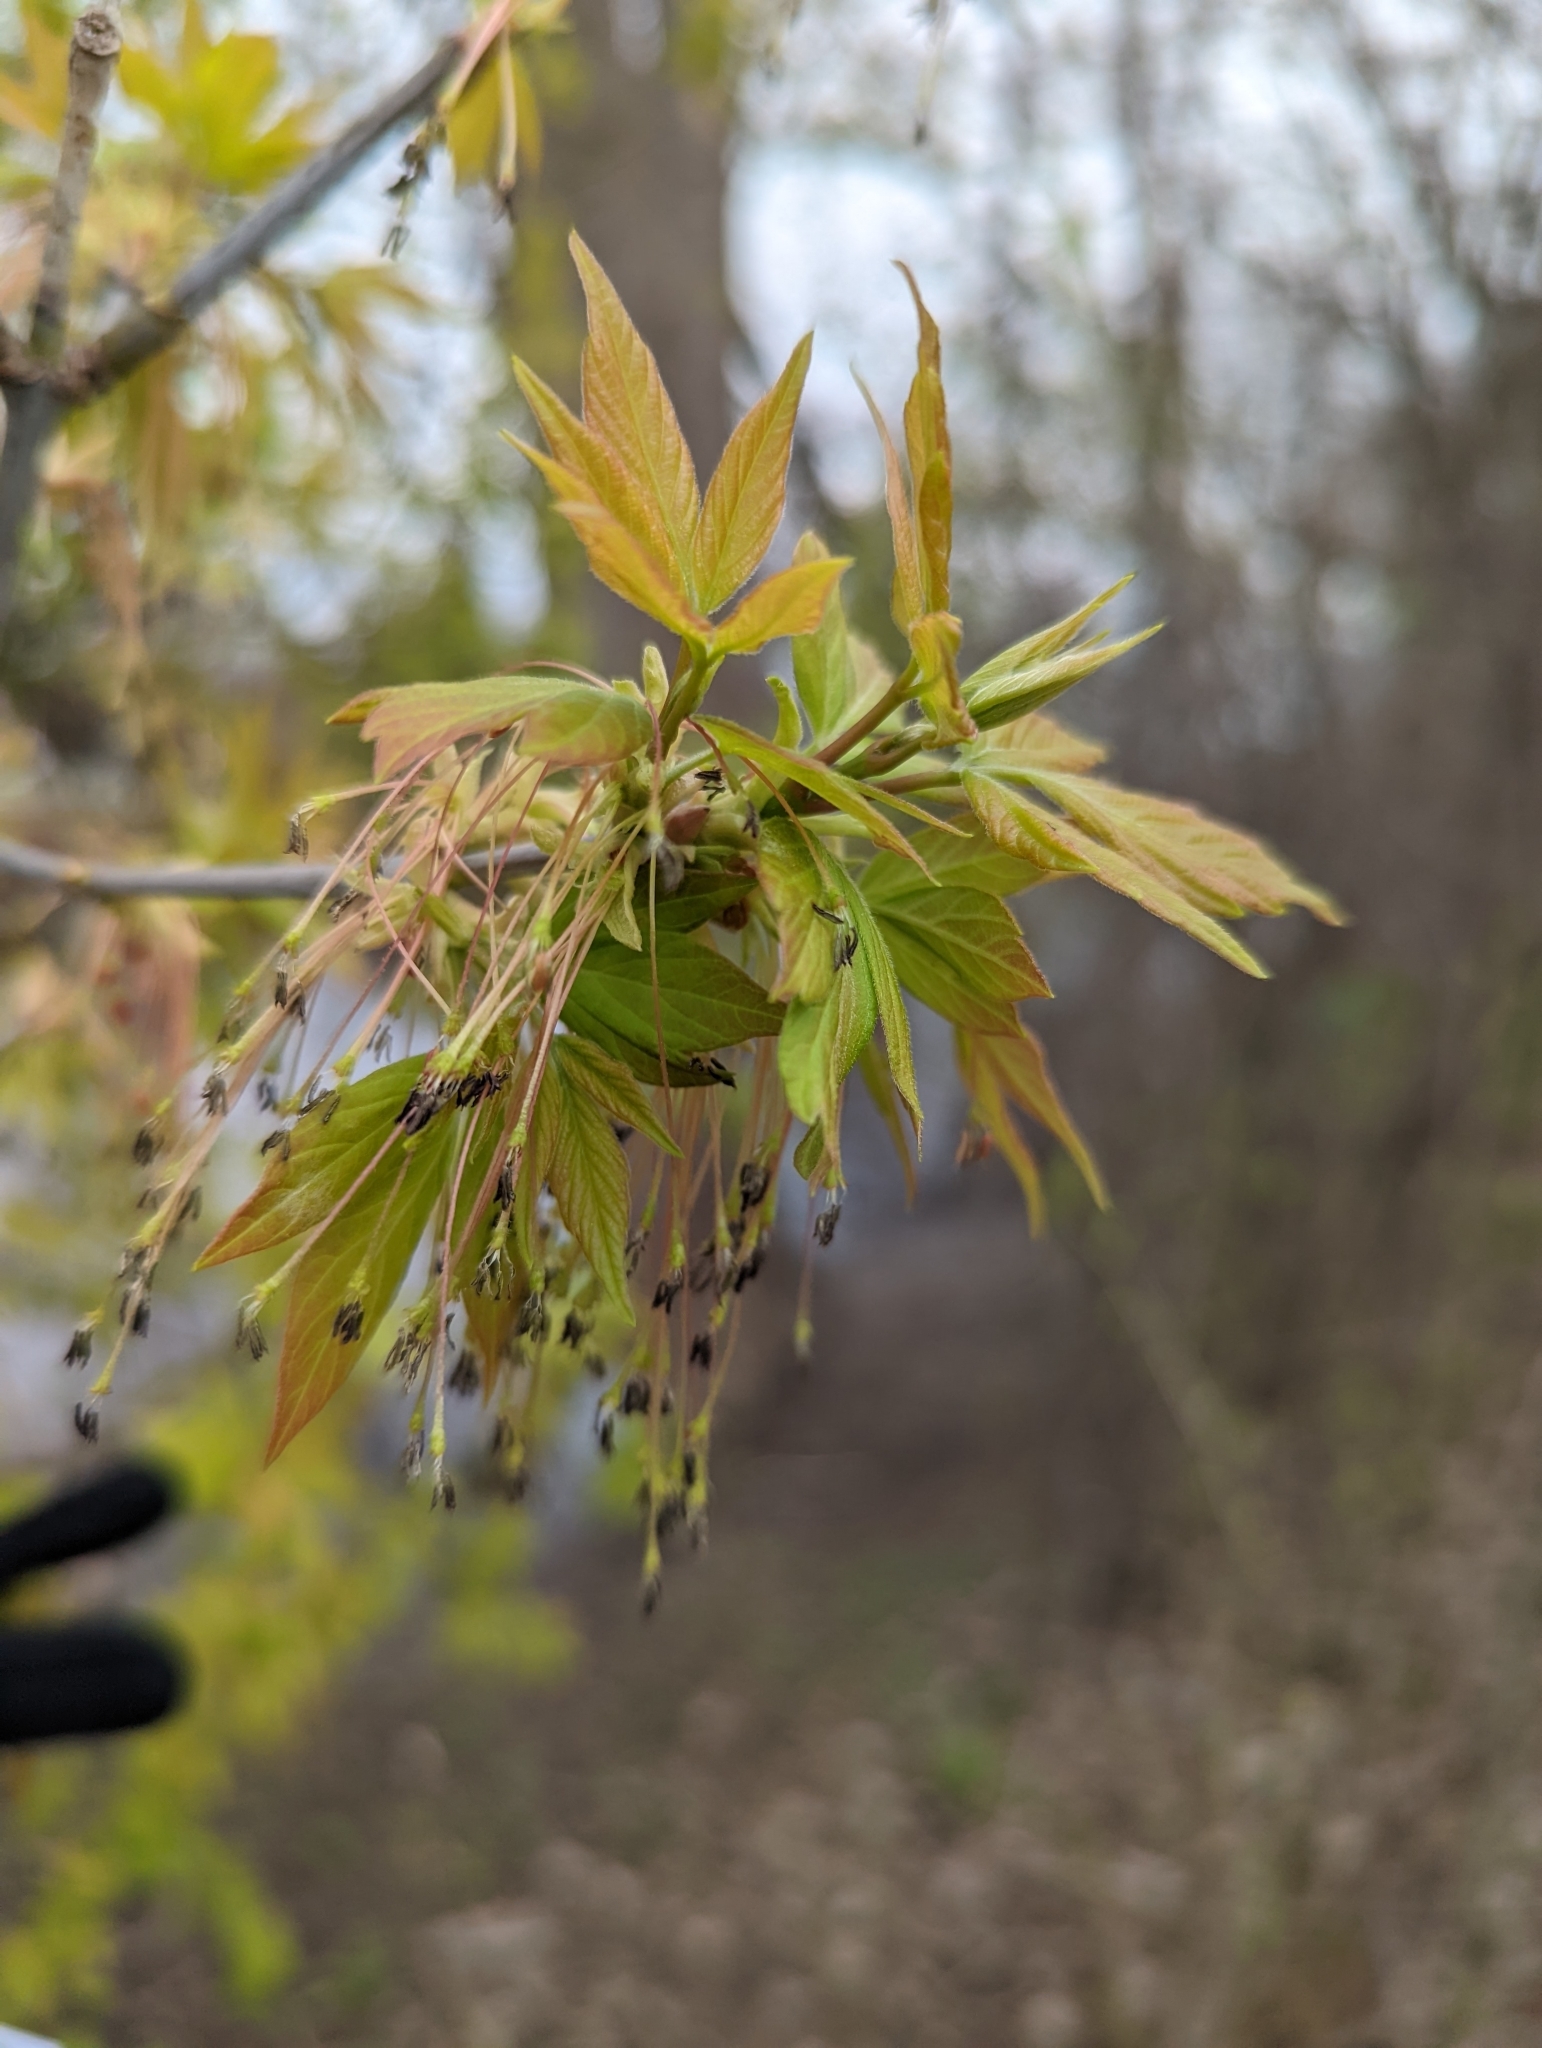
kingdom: Plantae
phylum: Tracheophyta
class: Magnoliopsida
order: Sapindales
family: Sapindaceae
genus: Acer
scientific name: Acer negundo
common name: Ashleaf maple
